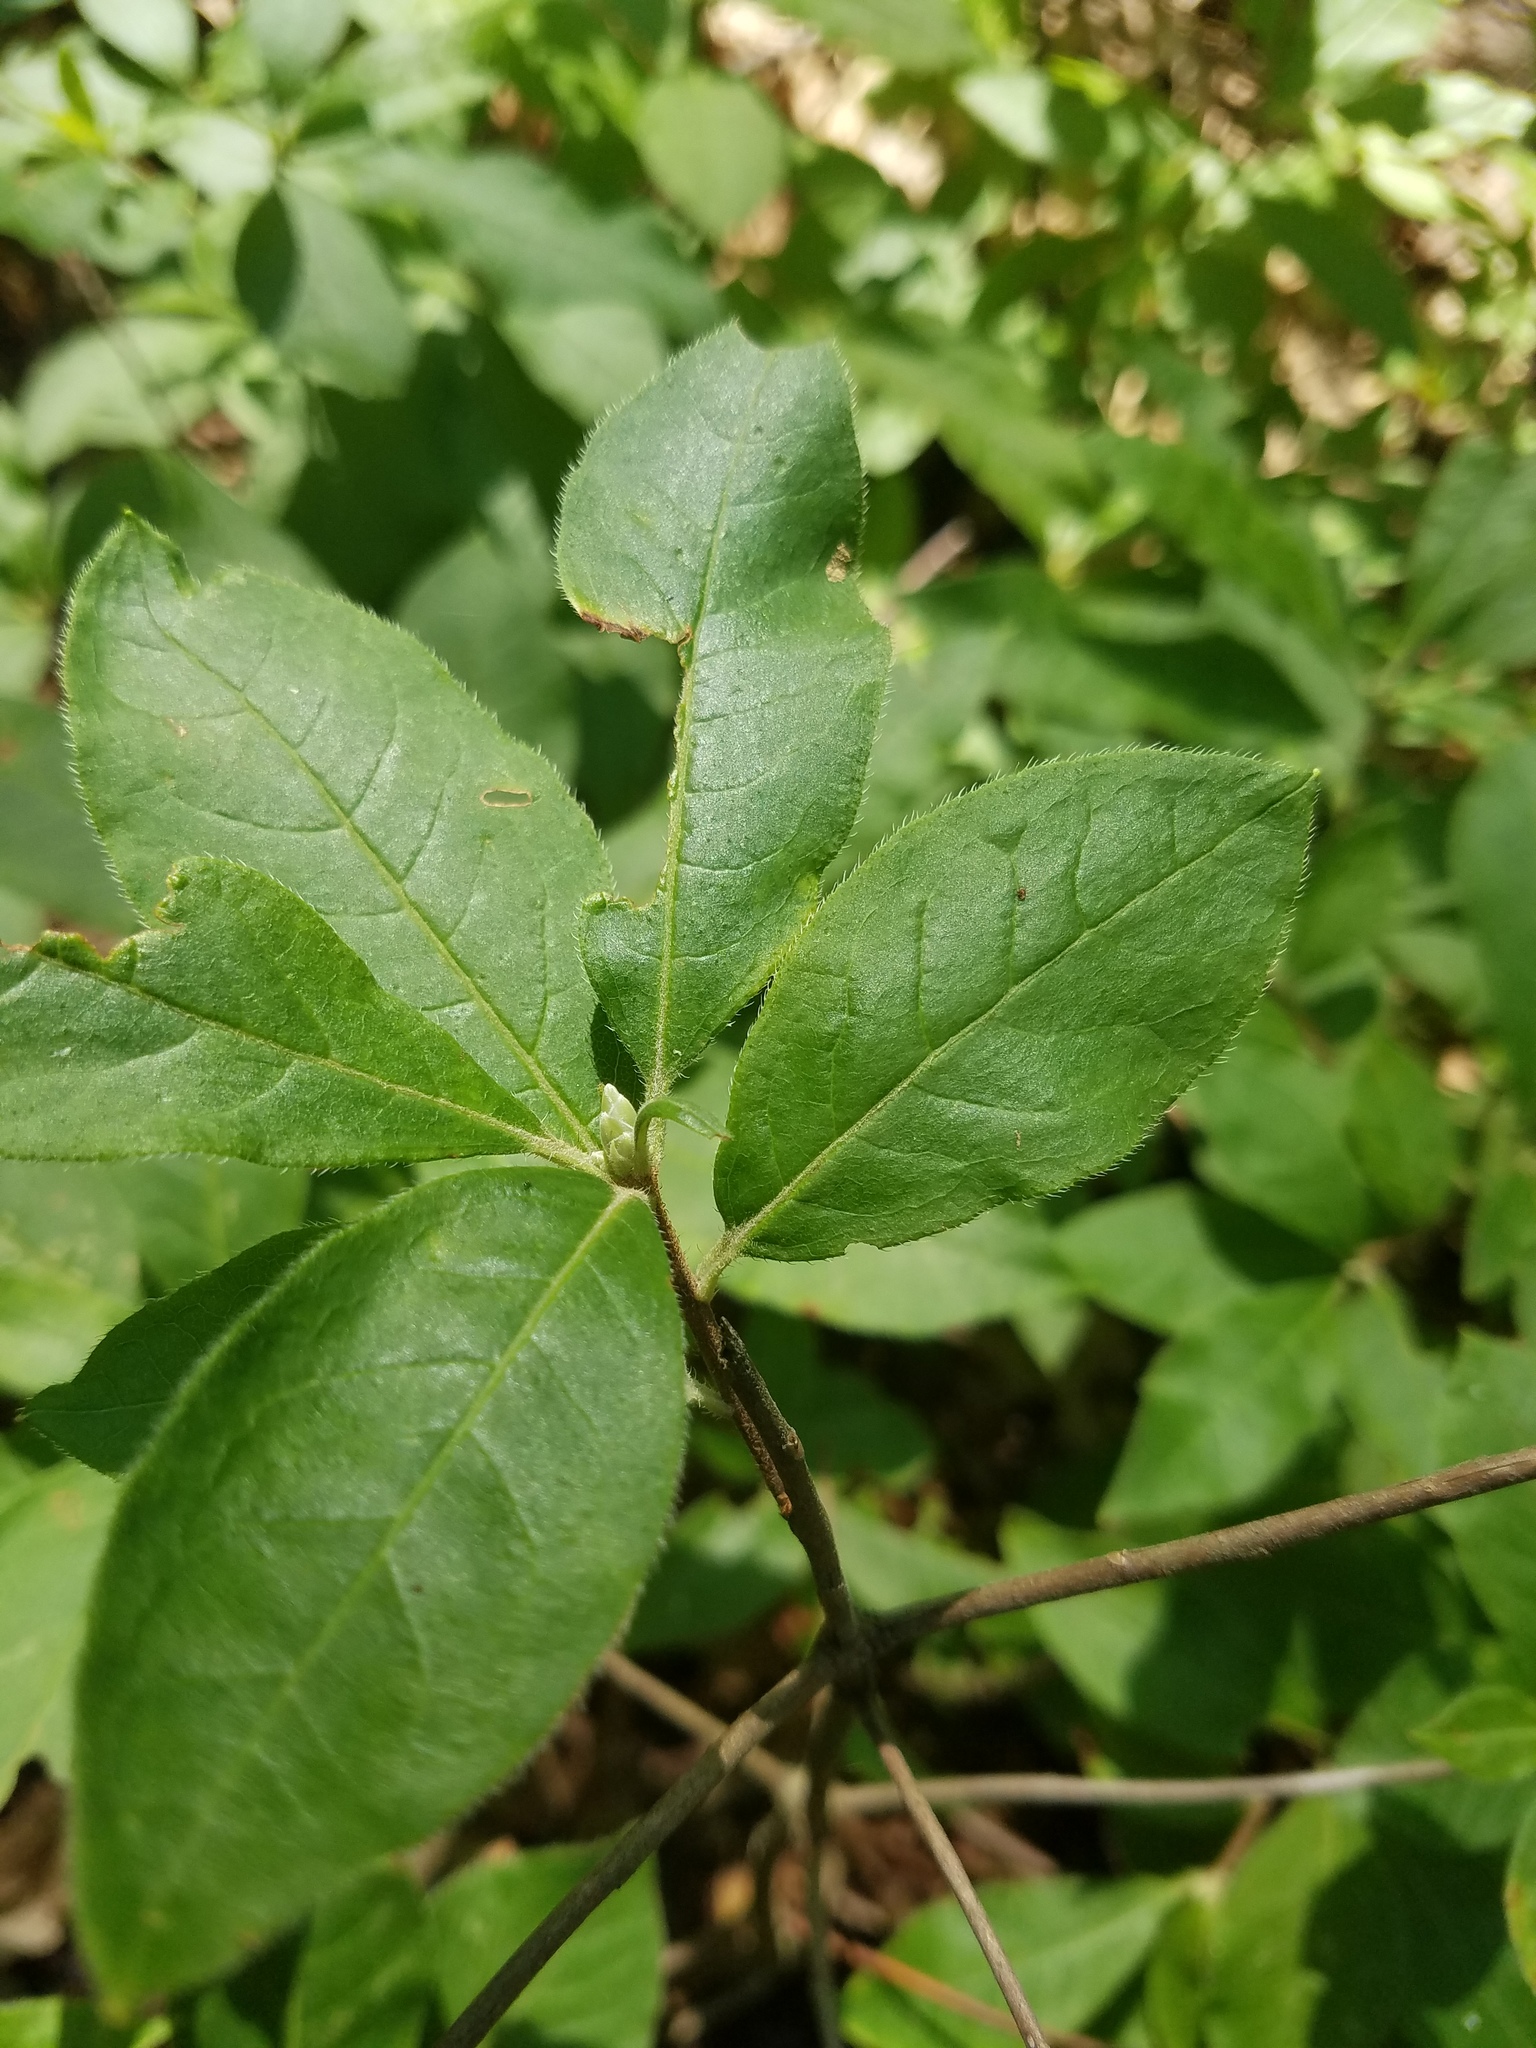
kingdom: Plantae
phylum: Tracheophyta
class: Magnoliopsida
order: Ericales
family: Ericaceae
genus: Rhododendron
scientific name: Rhododendron roseum
